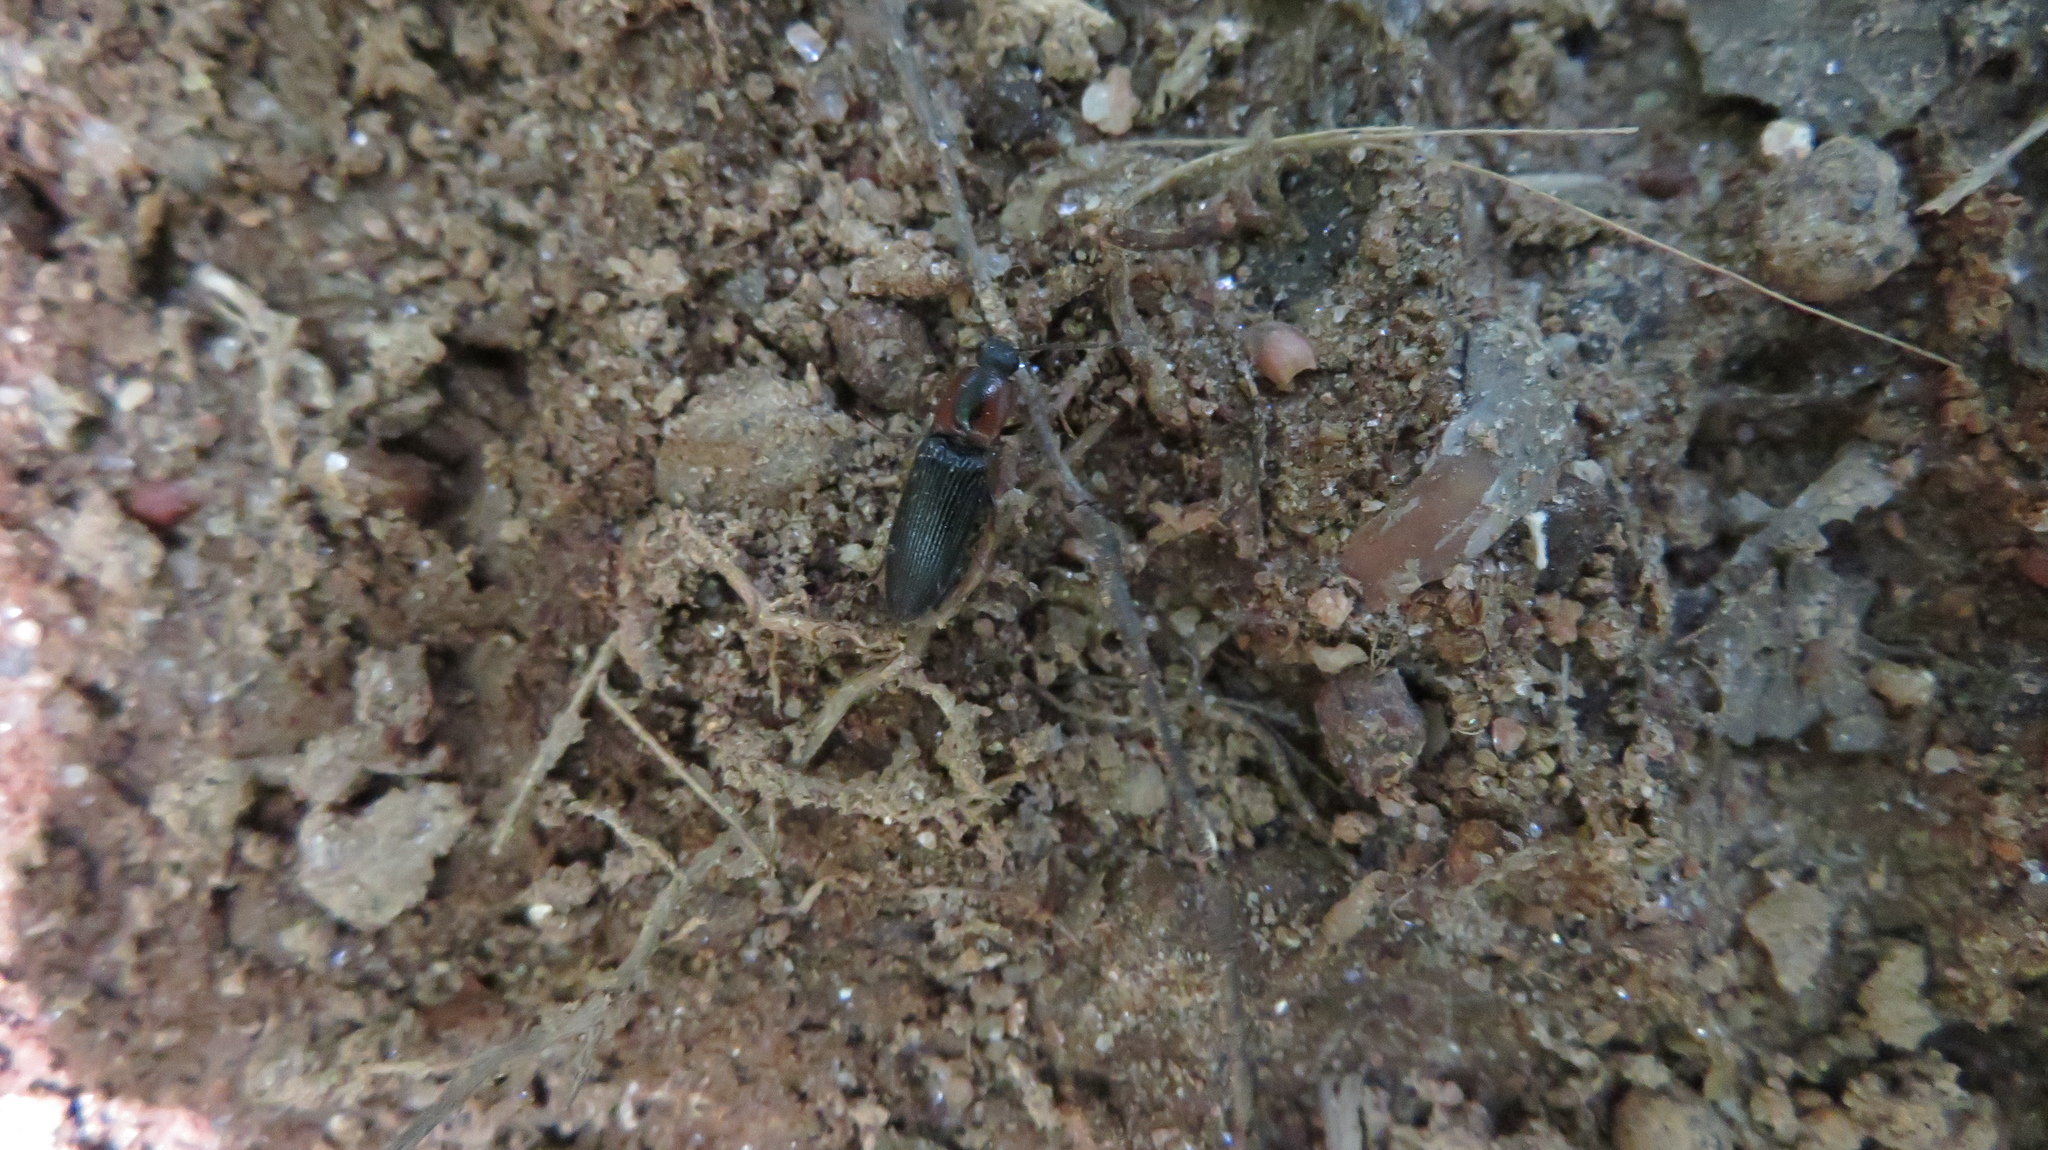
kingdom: Animalia
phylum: Arthropoda
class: Insecta
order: Coleoptera
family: Curculionidae
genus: Brownia
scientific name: Brownia
